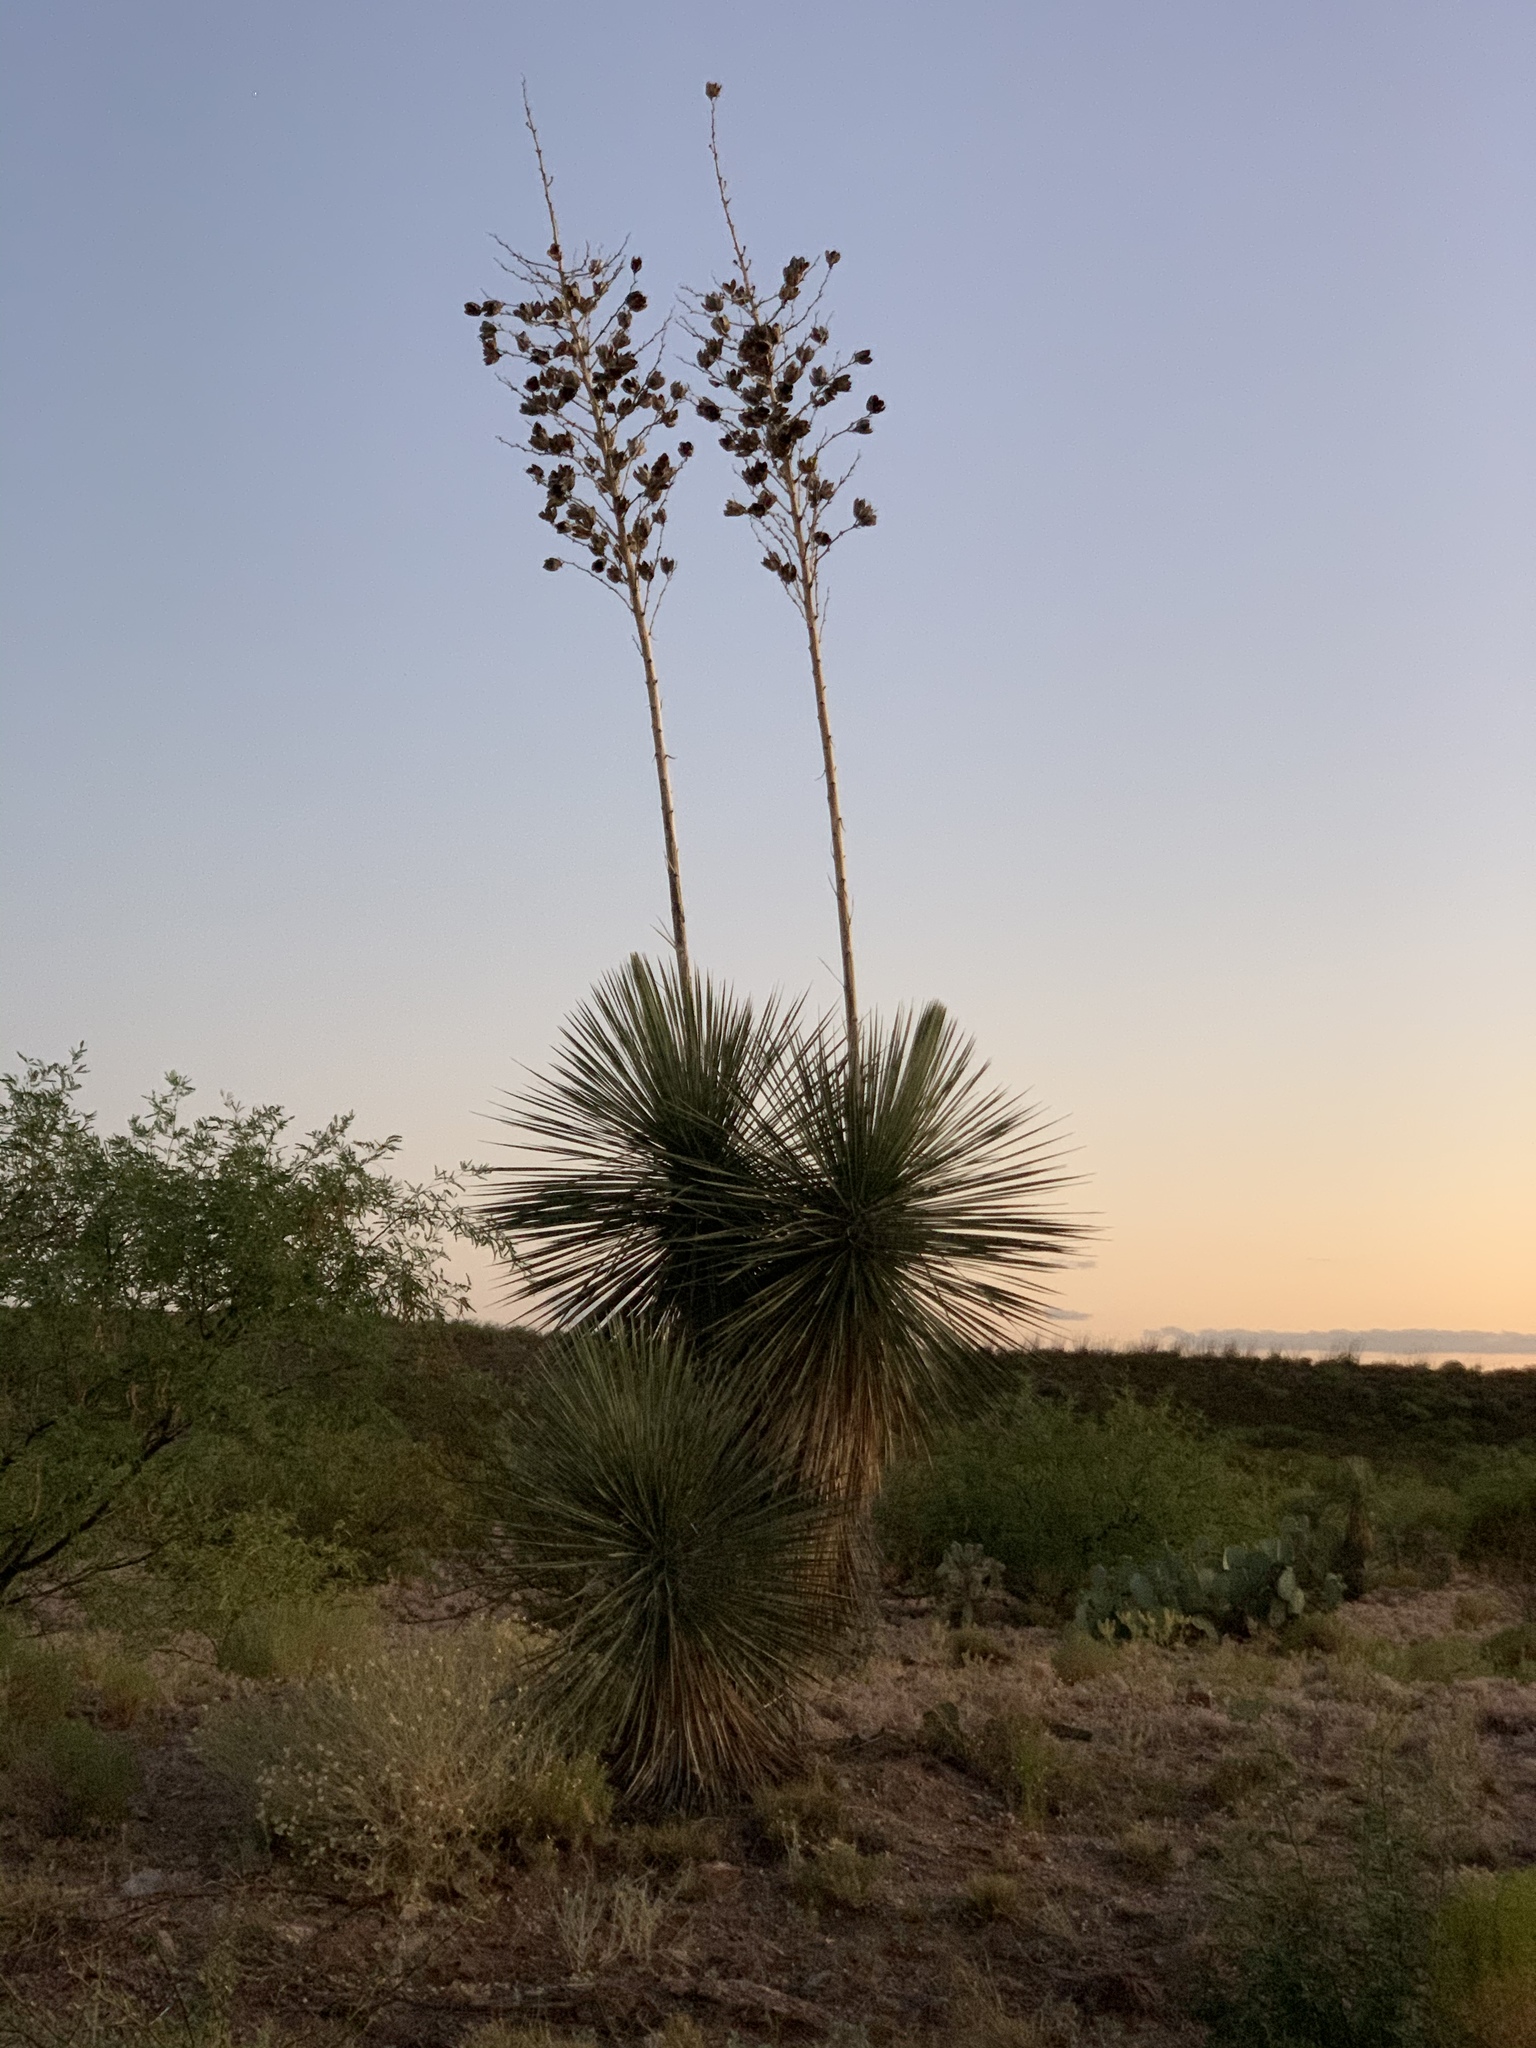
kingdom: Plantae
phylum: Tracheophyta
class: Liliopsida
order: Asparagales
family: Asparagaceae
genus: Yucca
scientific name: Yucca elata
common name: Palmella
